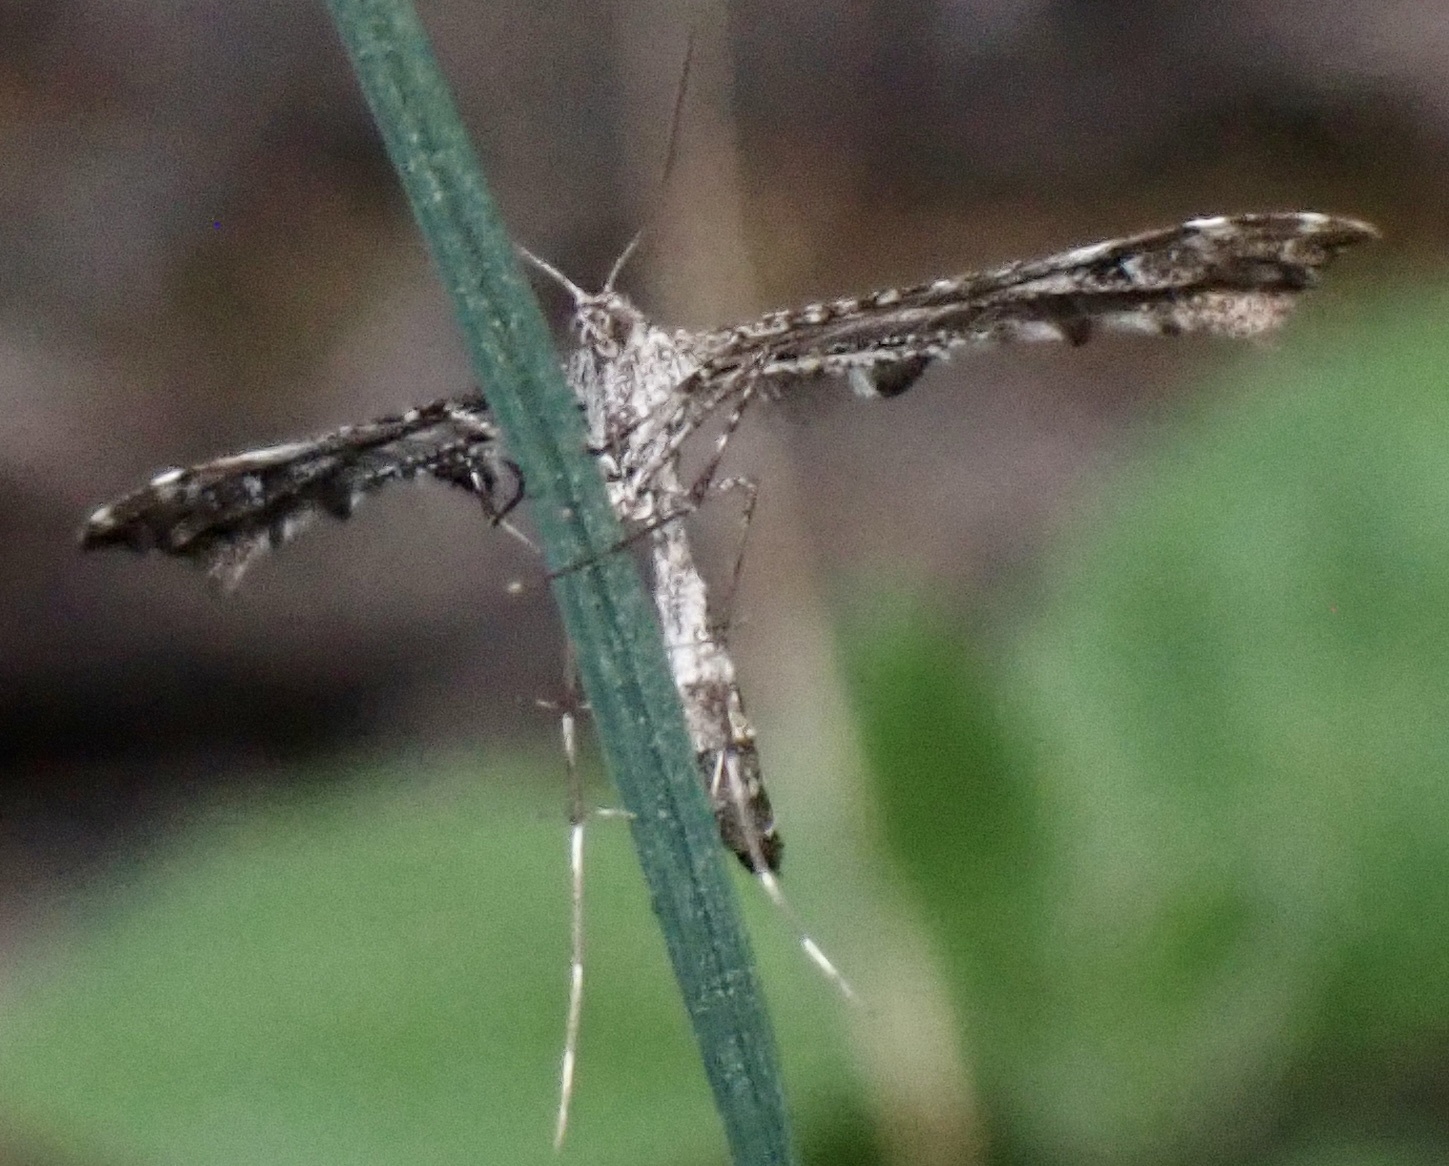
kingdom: Animalia
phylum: Arthropoda
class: Insecta
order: Lepidoptera
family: Pterophoridae
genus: Amblyptilia
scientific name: Amblyptilia pica
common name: Geranium plume moth
